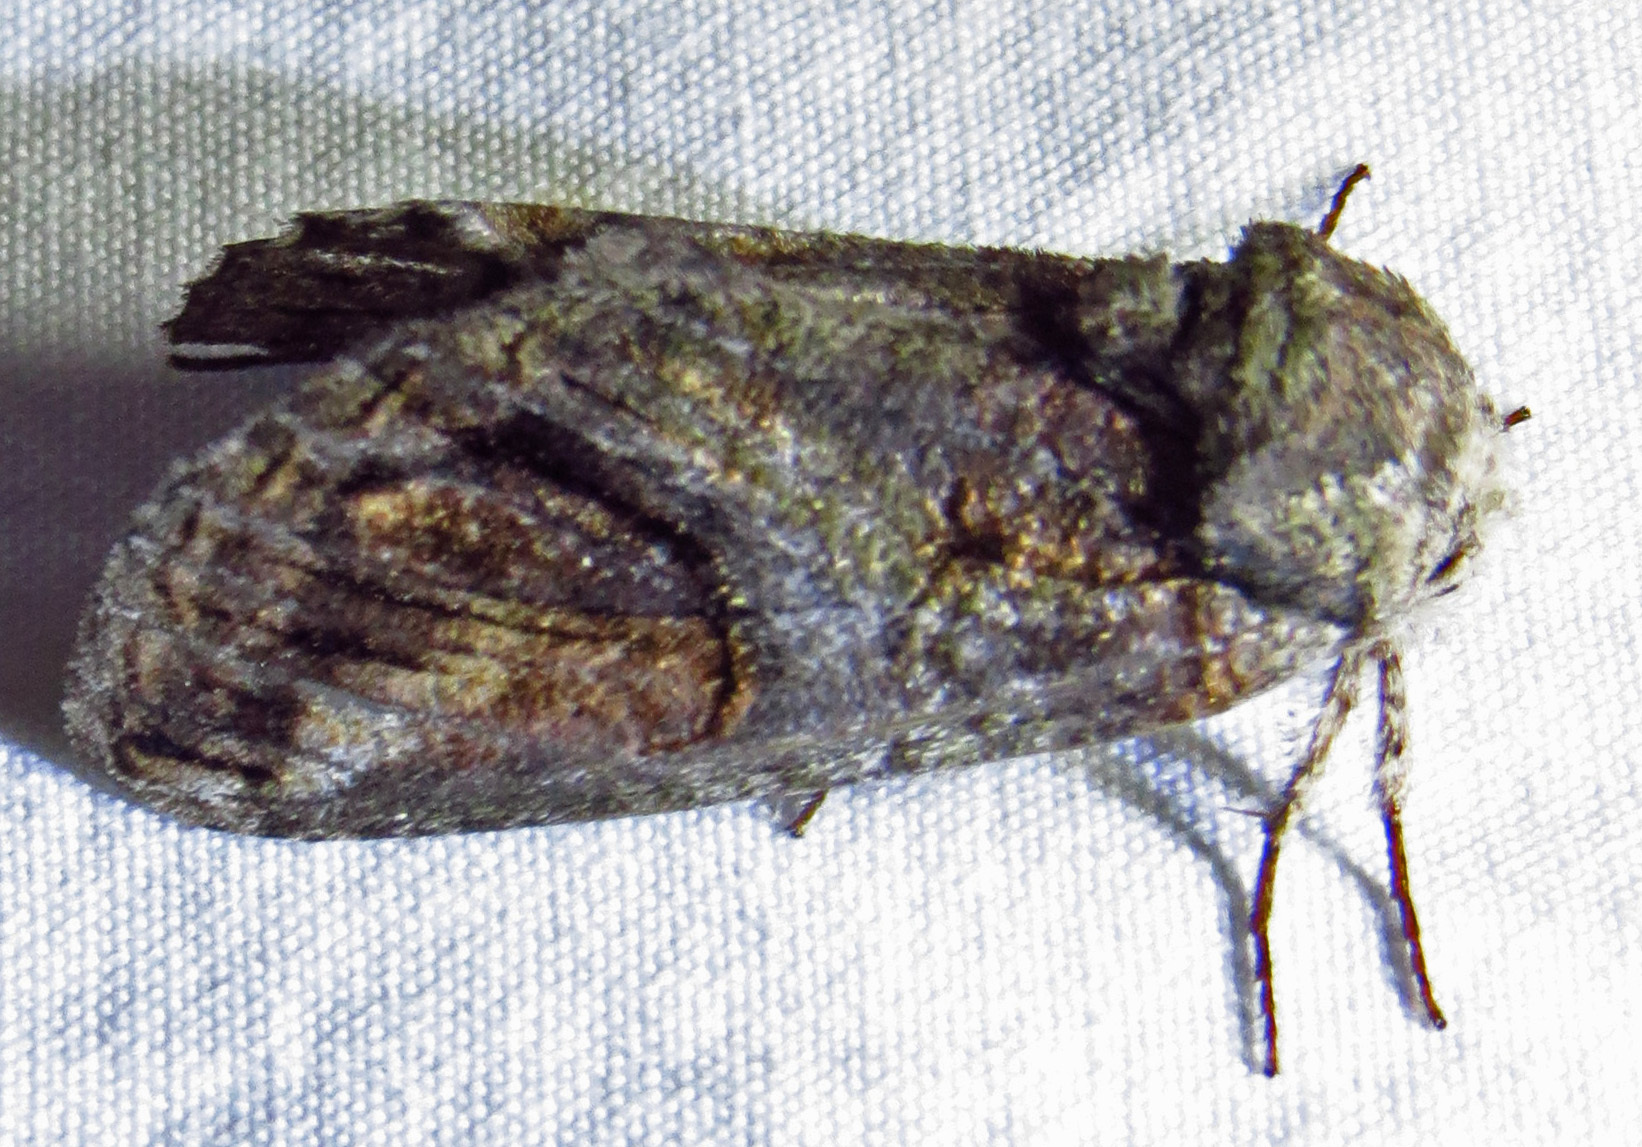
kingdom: Animalia
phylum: Arthropoda
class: Insecta
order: Lepidoptera
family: Notodontidae
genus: Heterocampa
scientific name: Heterocampa obliqua
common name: Oblique heterocampa
